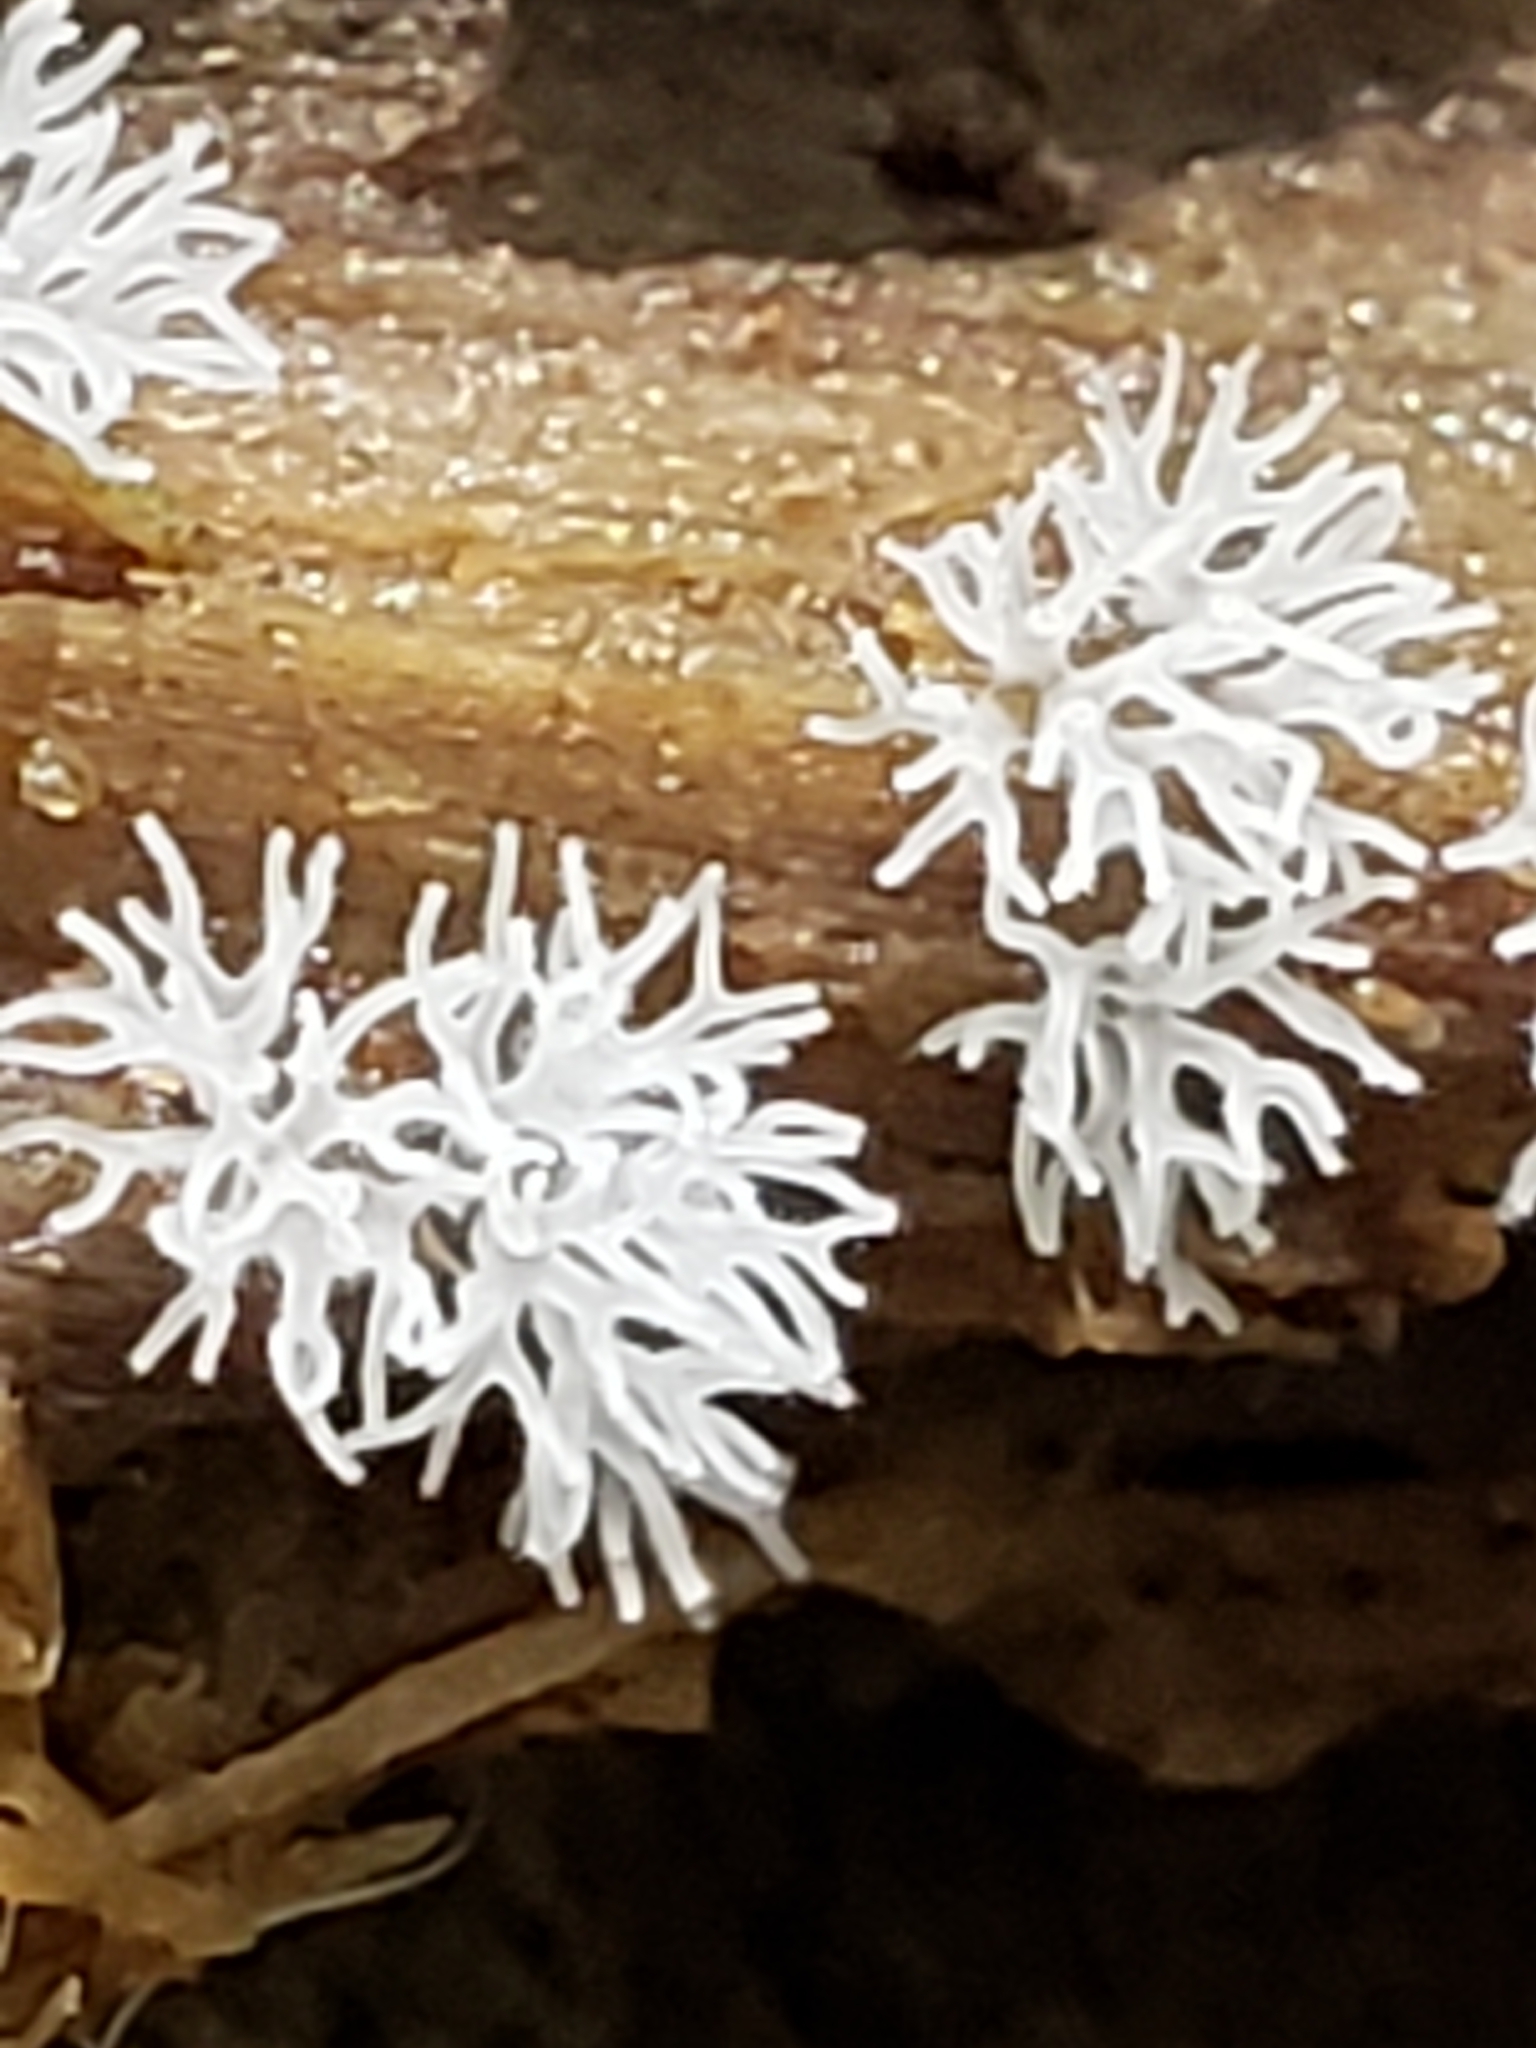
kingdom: Protozoa
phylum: Mycetozoa
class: Protosteliomycetes
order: Ceratiomyxales
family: Ceratiomyxaceae
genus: Ceratiomyxa
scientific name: Ceratiomyxa fruticulosa
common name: Honeycomb coral slime mold
